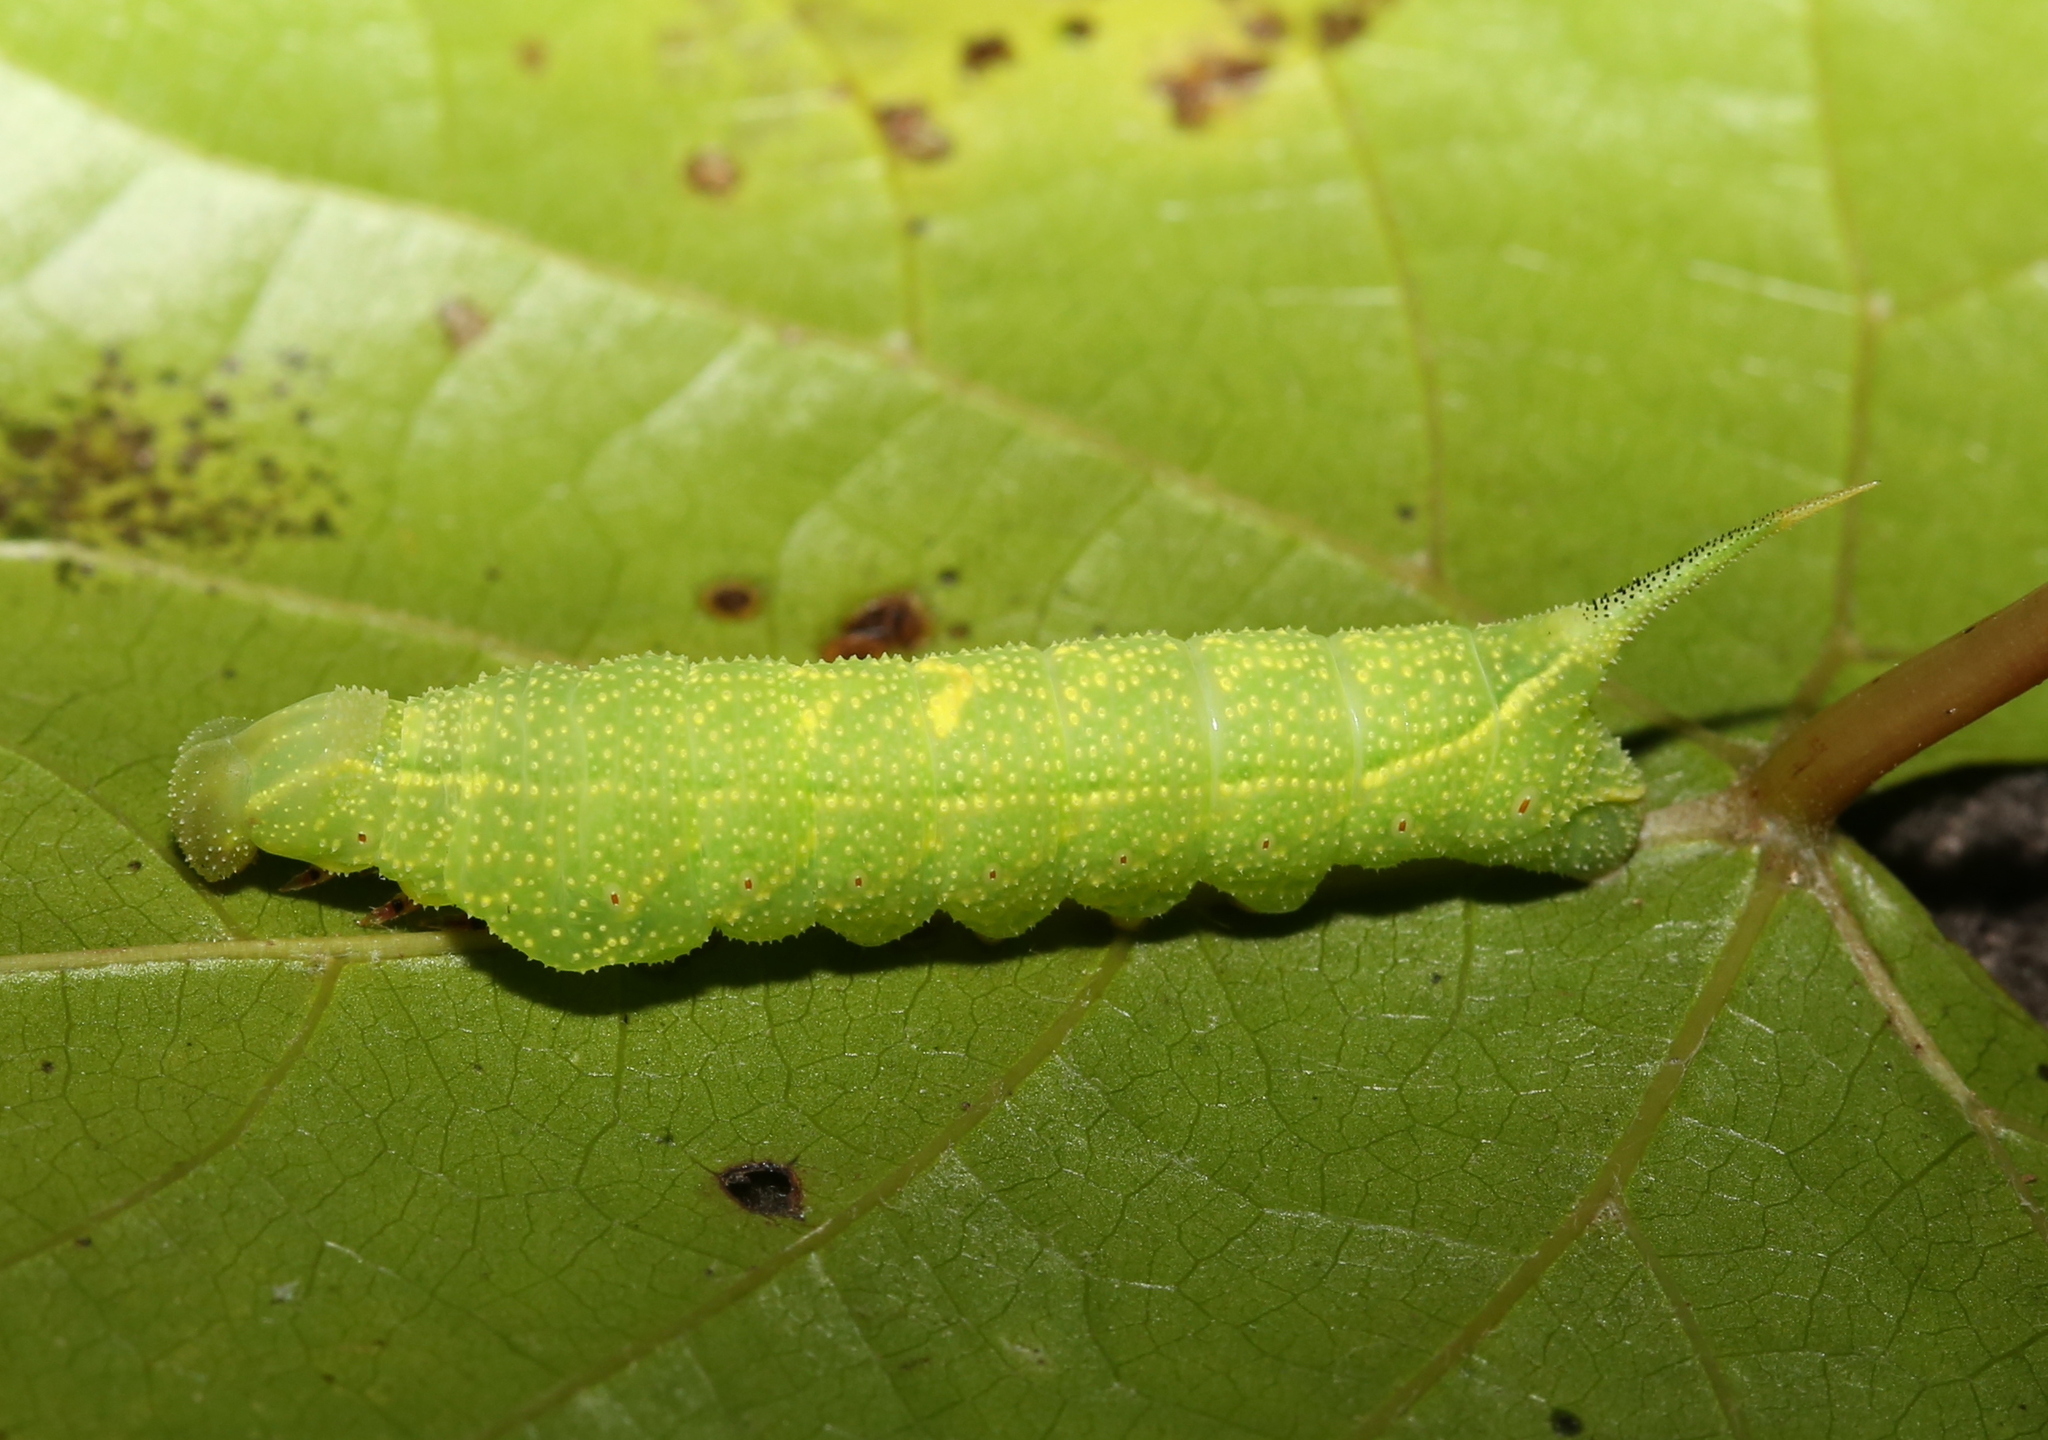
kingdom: Animalia
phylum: Arthropoda
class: Insecta
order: Lepidoptera
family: Sphingidae
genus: Darapsa
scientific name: Darapsa myron
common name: Hog sphinx
